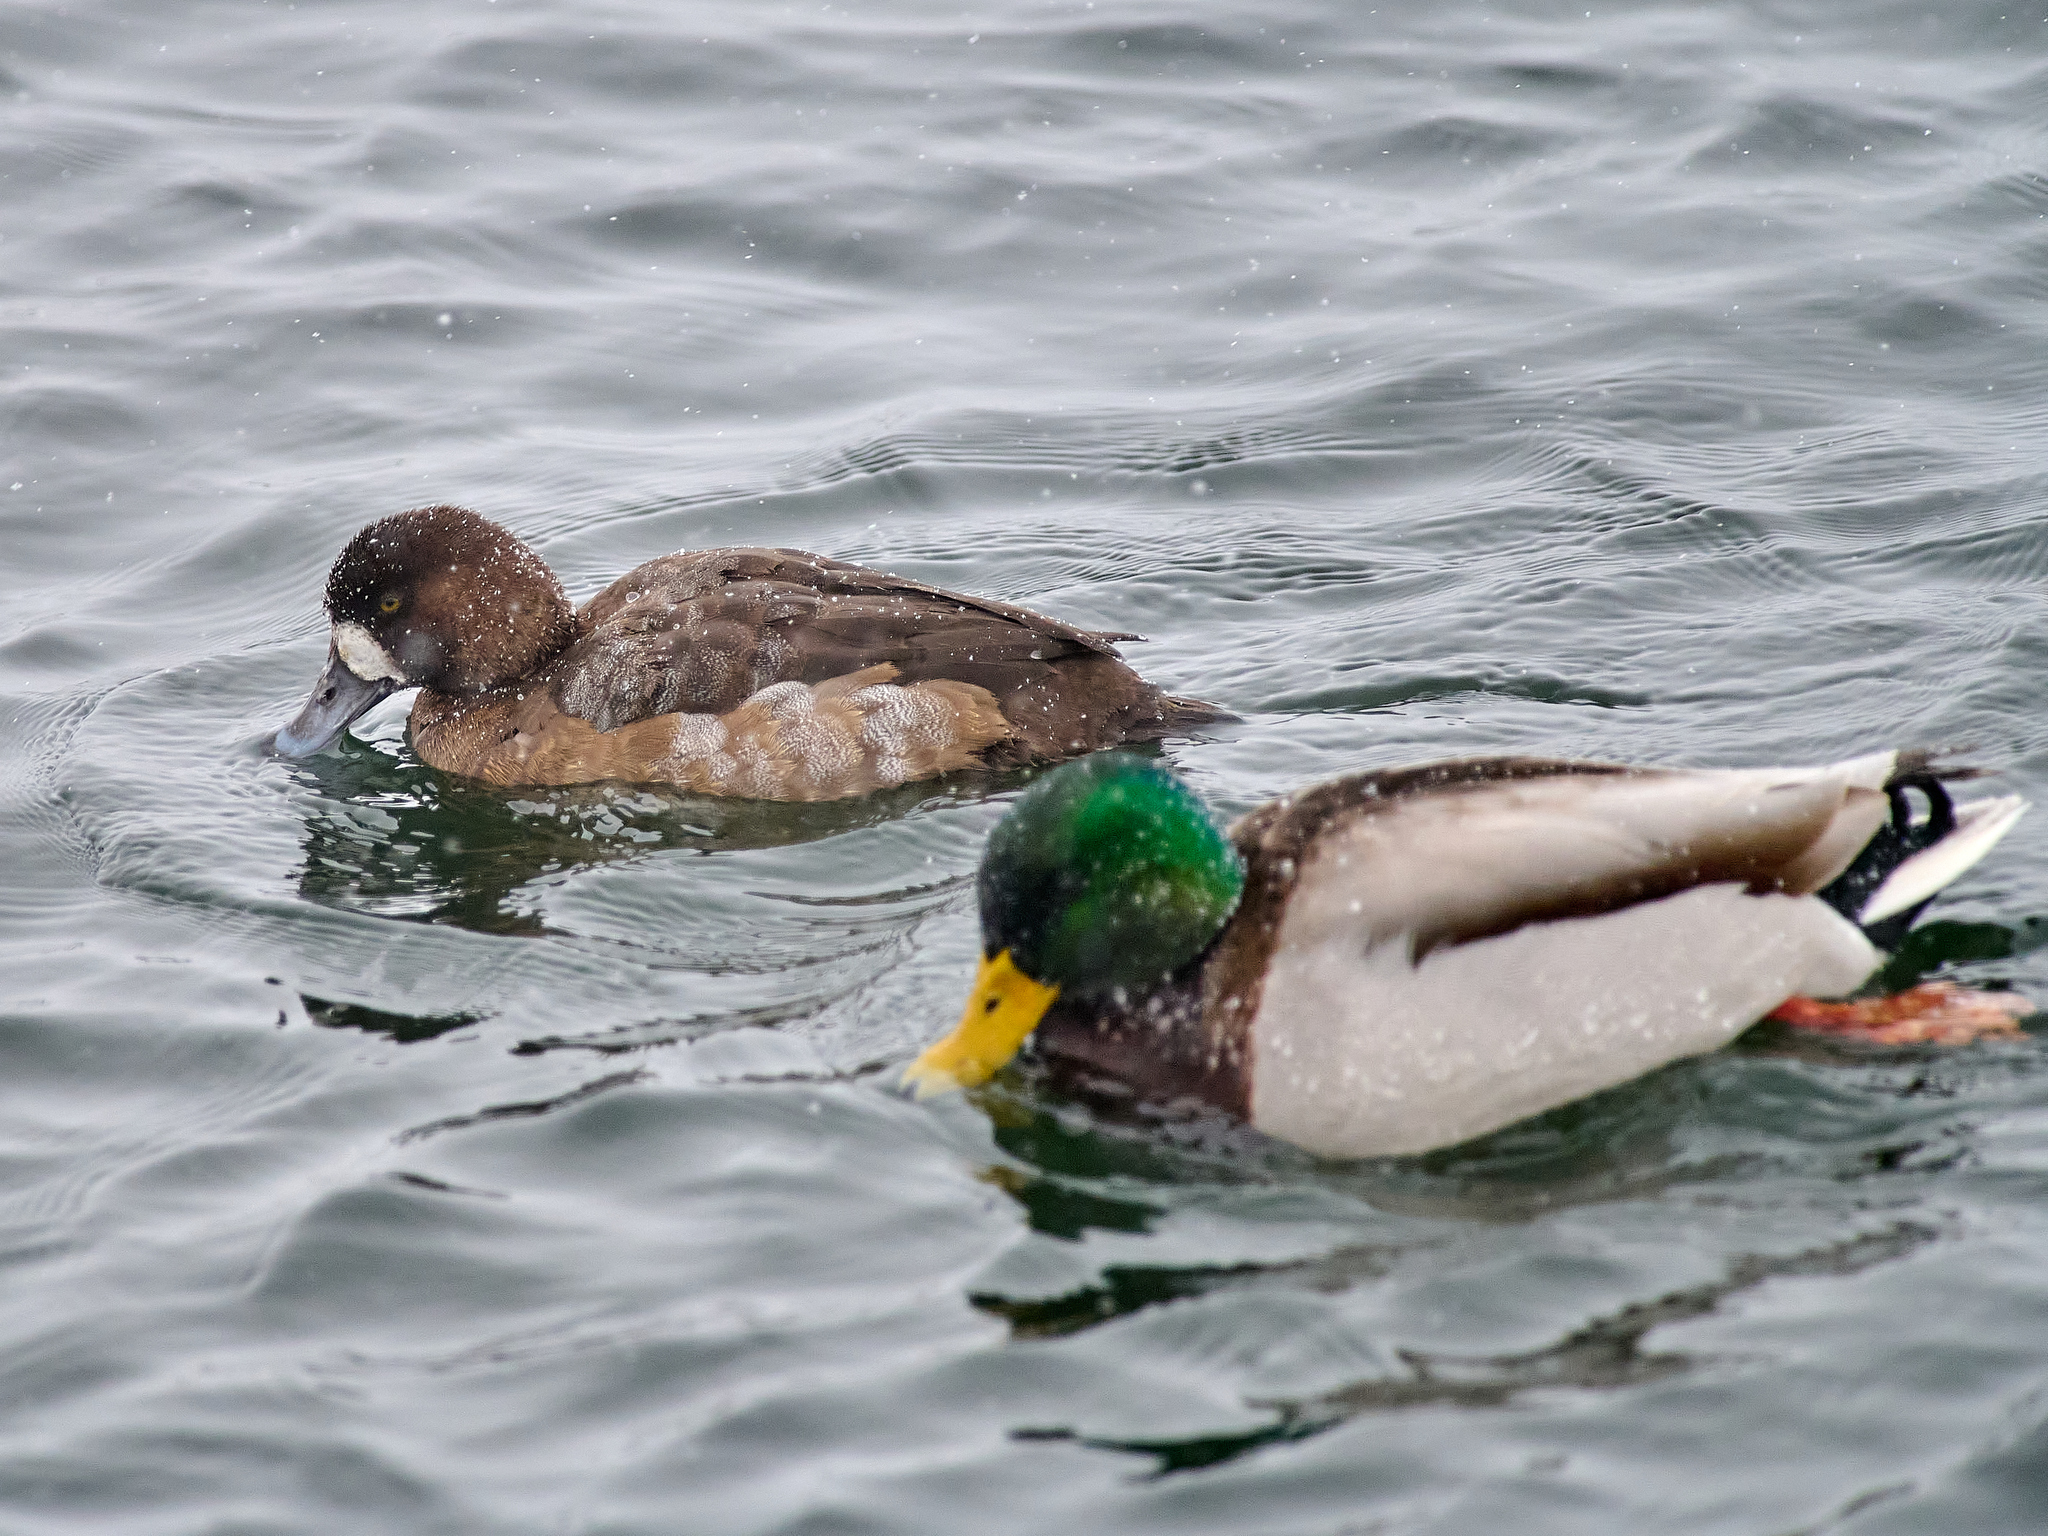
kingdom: Animalia
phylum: Chordata
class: Aves
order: Anseriformes
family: Anatidae
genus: Aythya
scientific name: Aythya marila
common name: Greater scaup
